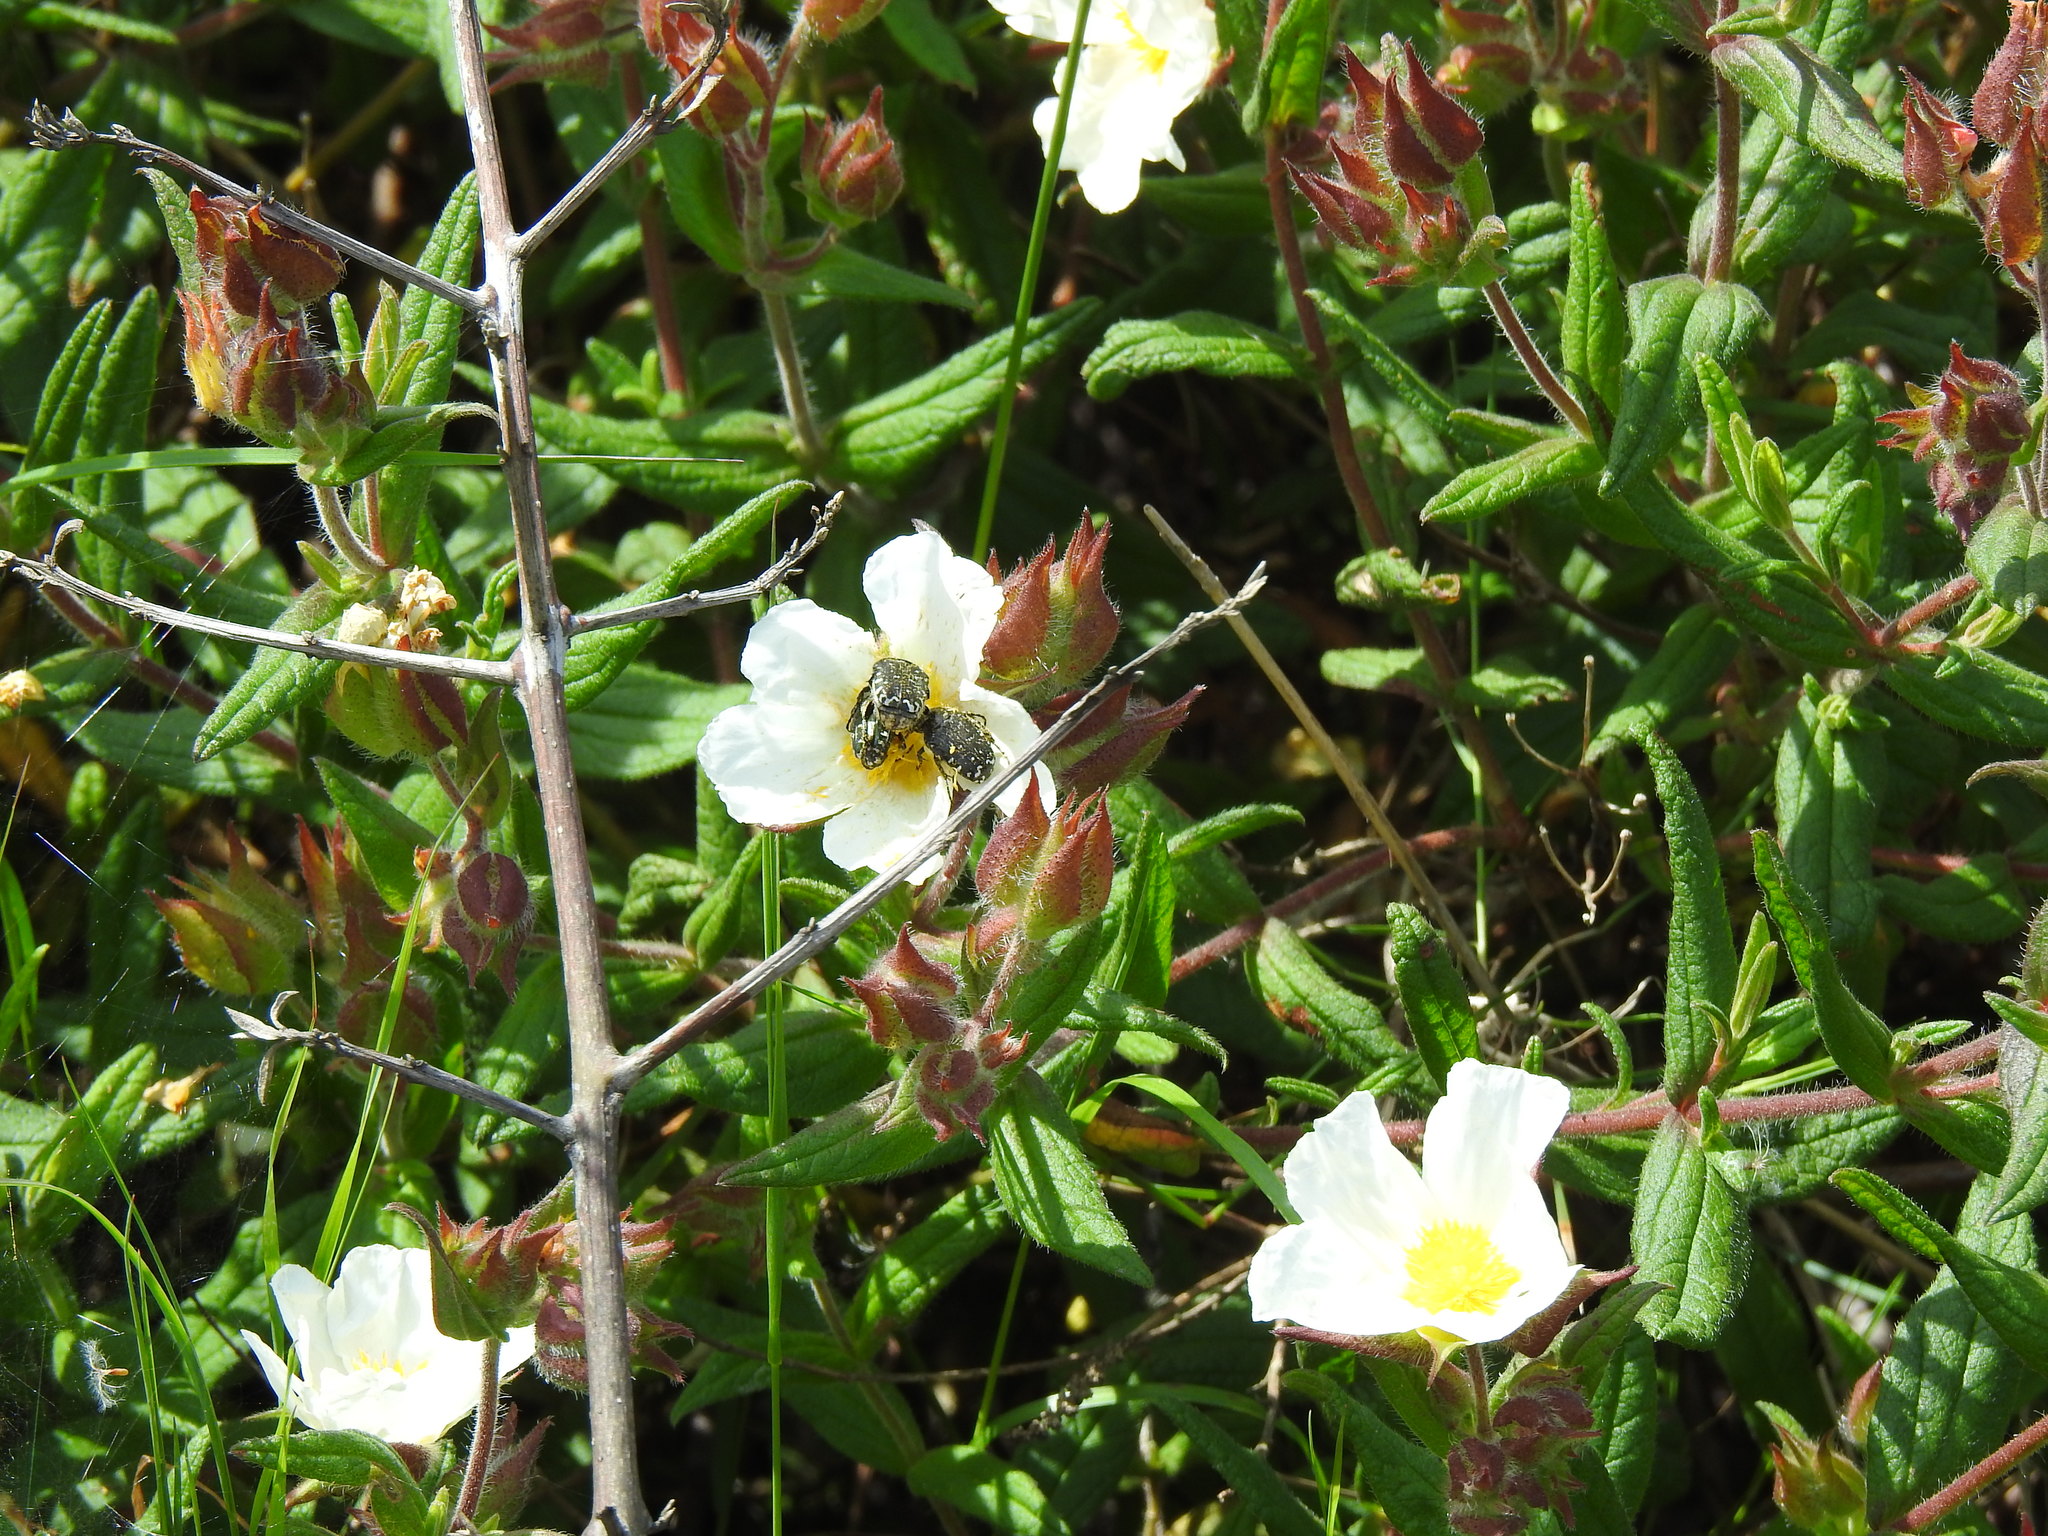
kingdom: Animalia
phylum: Arthropoda
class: Insecta
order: Coleoptera
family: Scarabaeidae
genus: Oxythyrea
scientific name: Oxythyrea funesta
